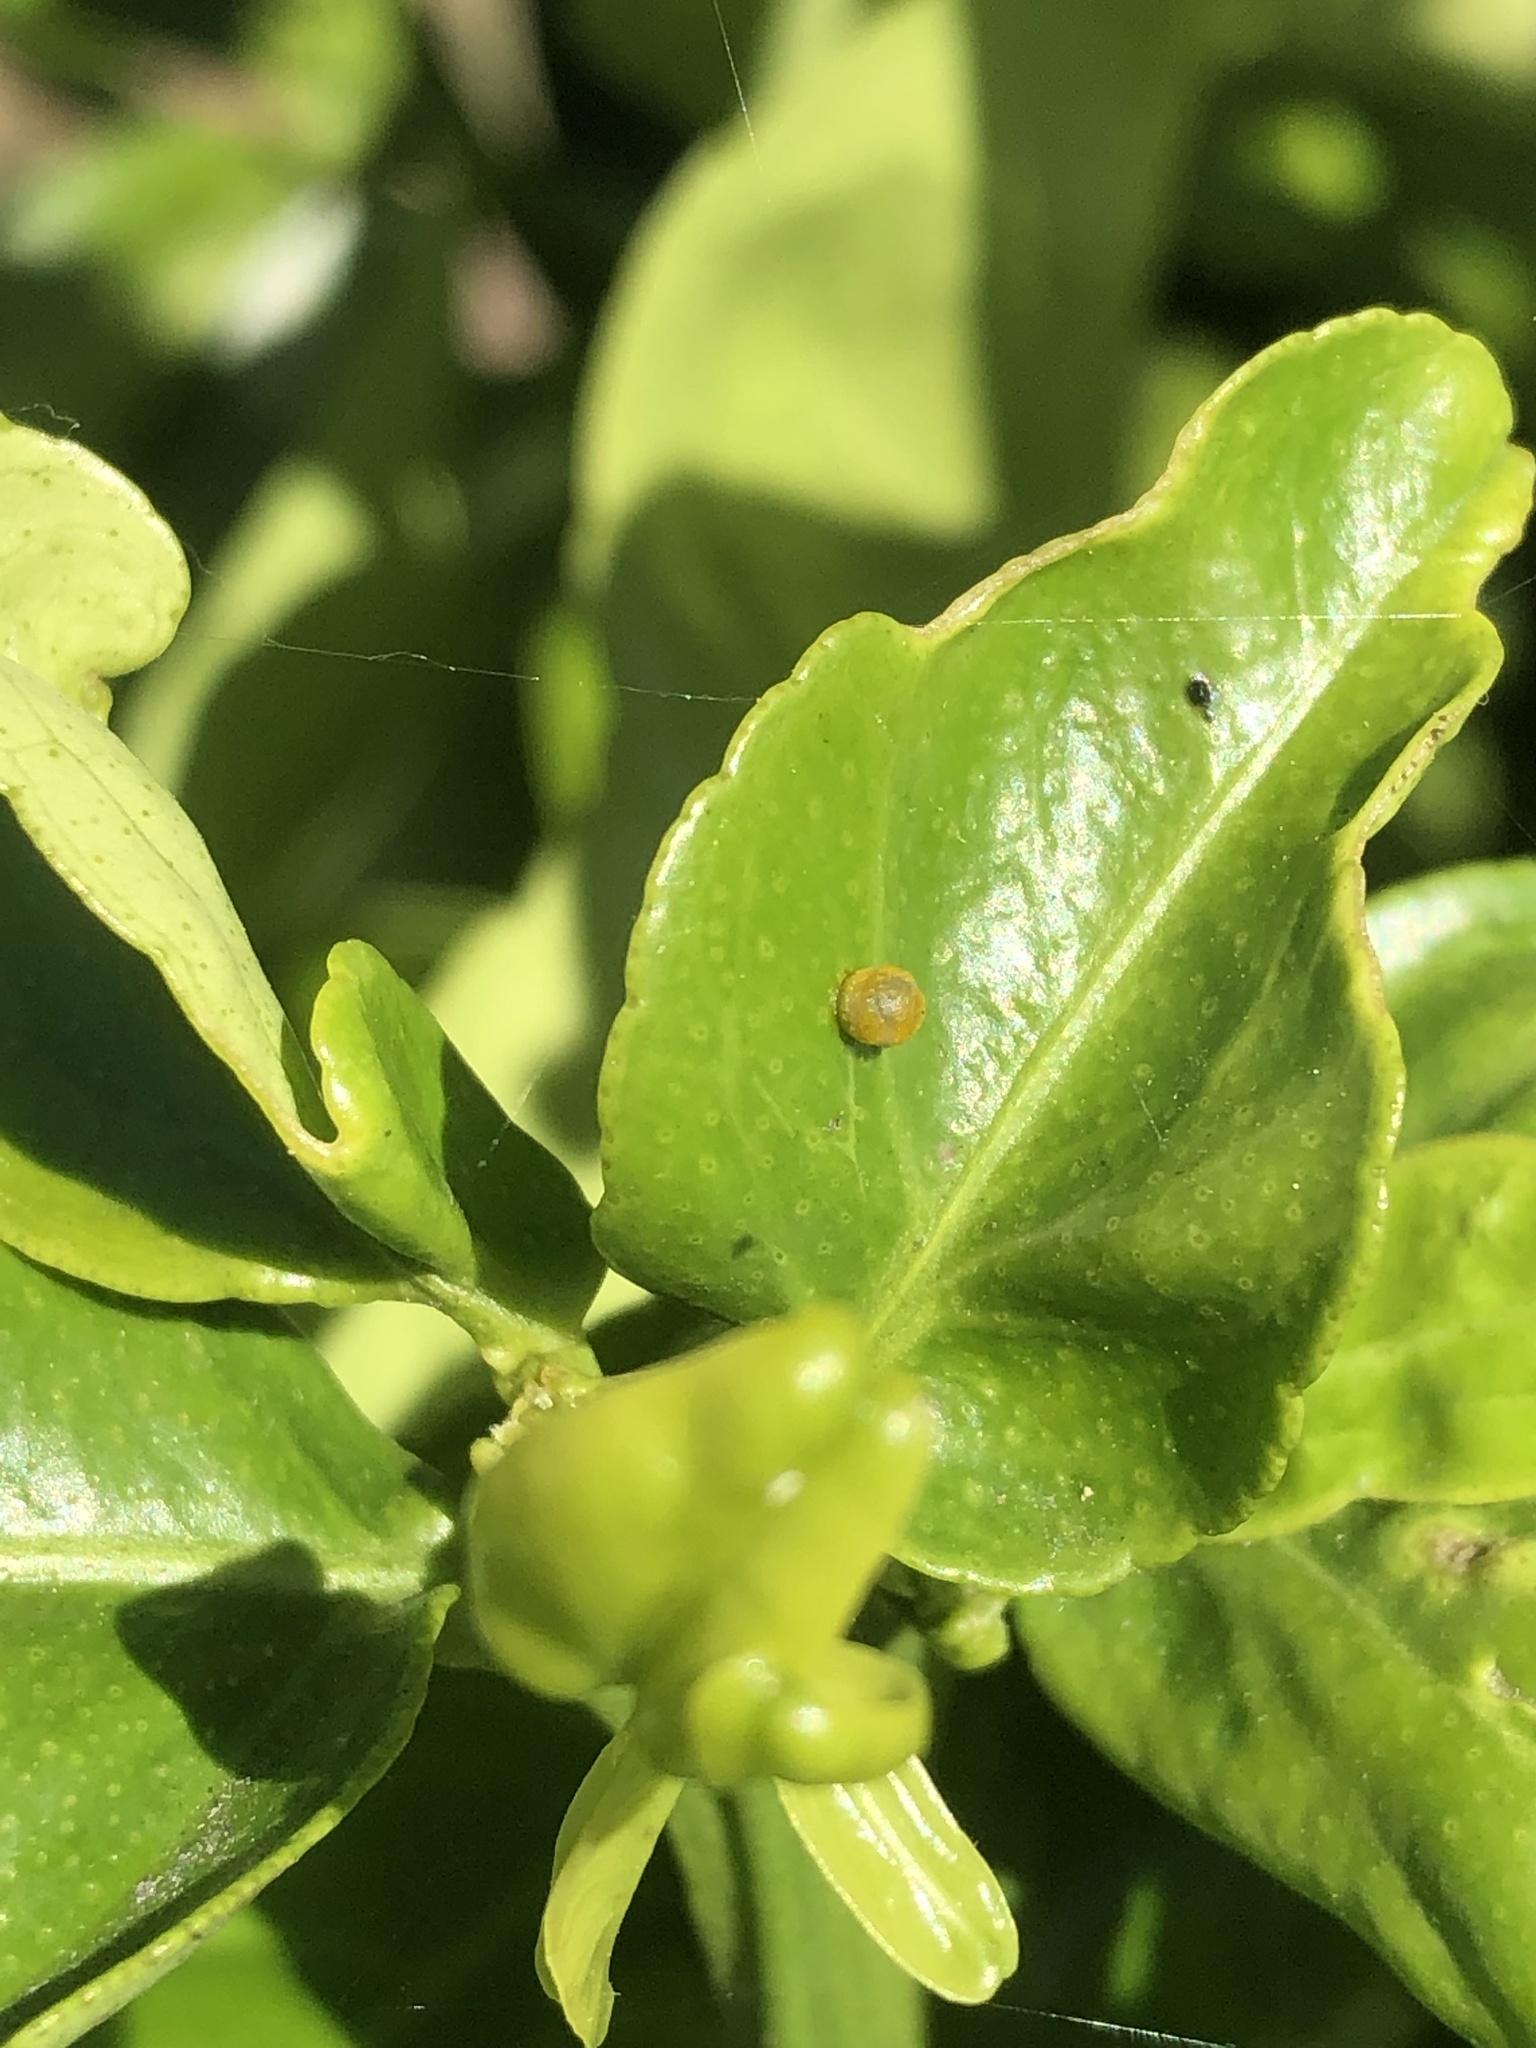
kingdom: Animalia
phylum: Arthropoda
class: Insecta
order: Lepidoptera
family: Papilionidae
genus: Papilio
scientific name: Papilio rumiko
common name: Western giant swallowtail
